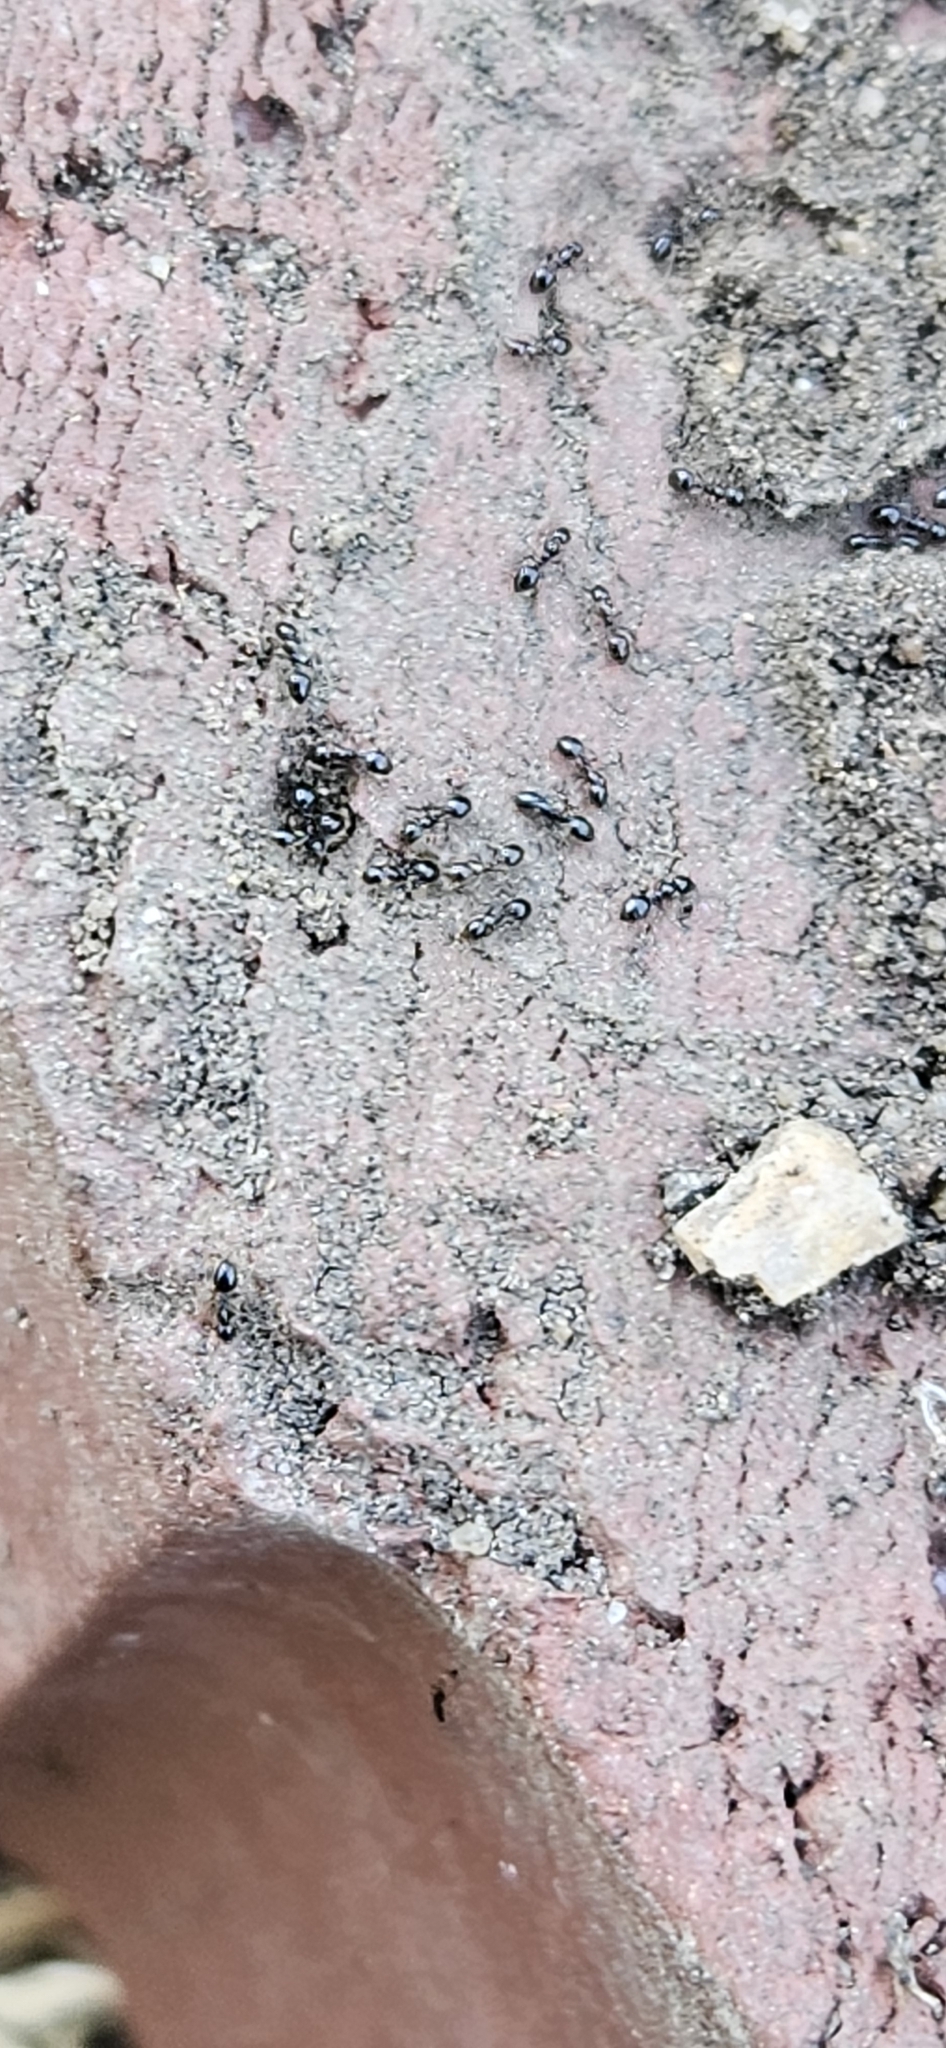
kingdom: Animalia
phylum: Arthropoda
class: Insecta
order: Hymenoptera
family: Formicidae
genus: Monomorium
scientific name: Monomorium minimum
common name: Little black ant
